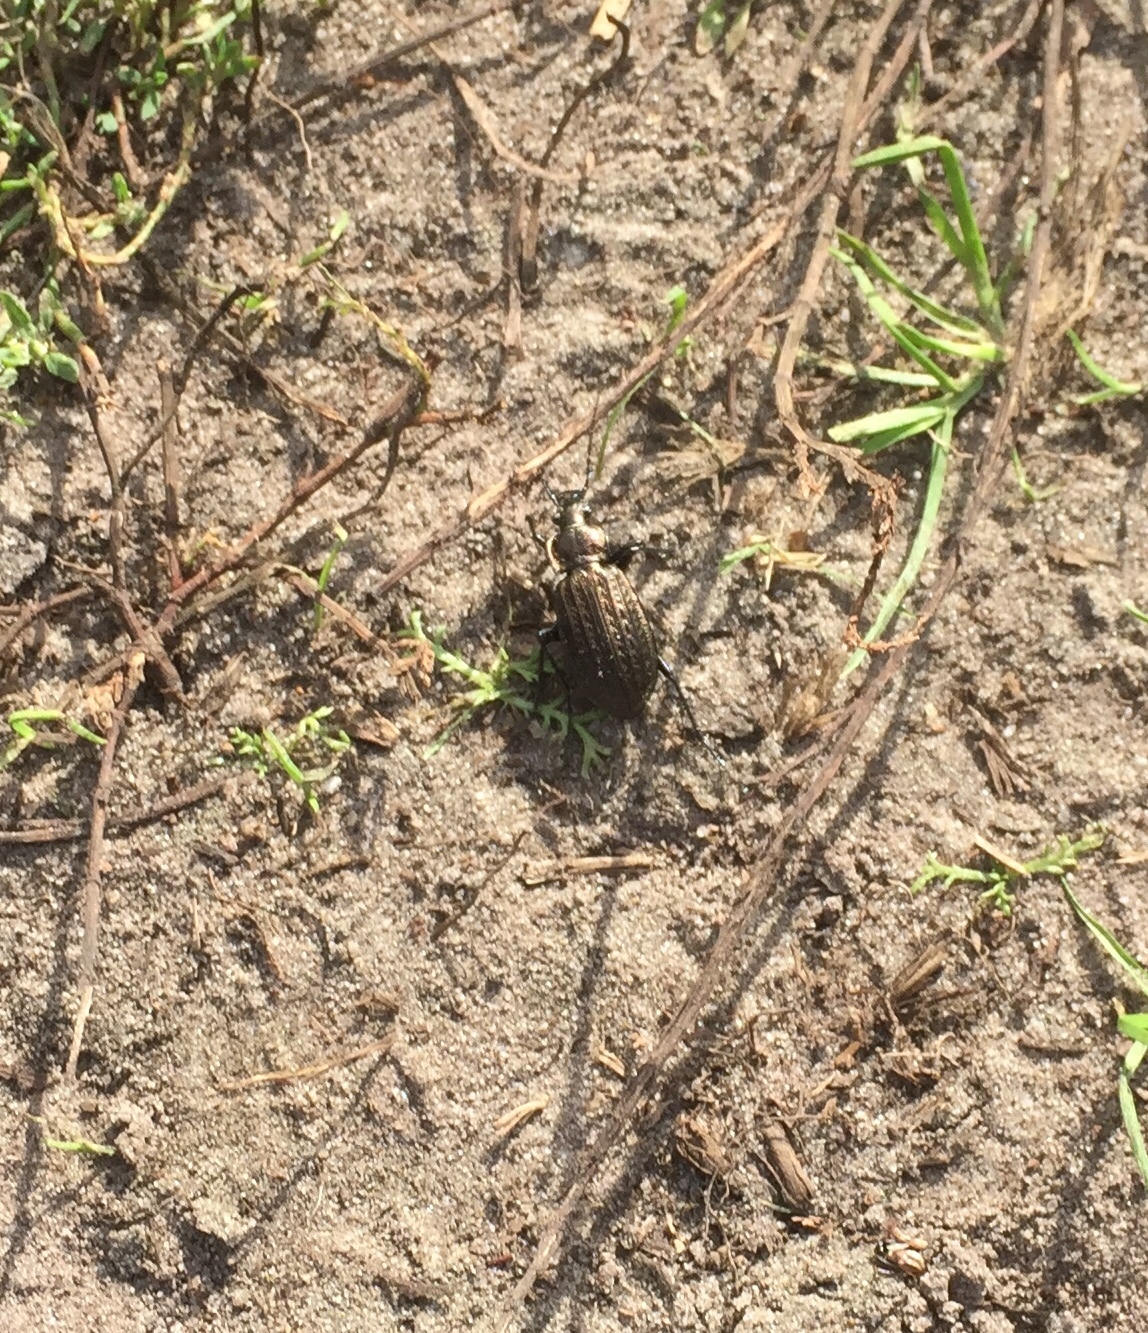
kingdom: Animalia
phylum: Arthropoda
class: Insecta
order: Coleoptera
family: Carabidae
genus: Carabus
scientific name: Carabus granulatus
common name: Granulate ground beetle
